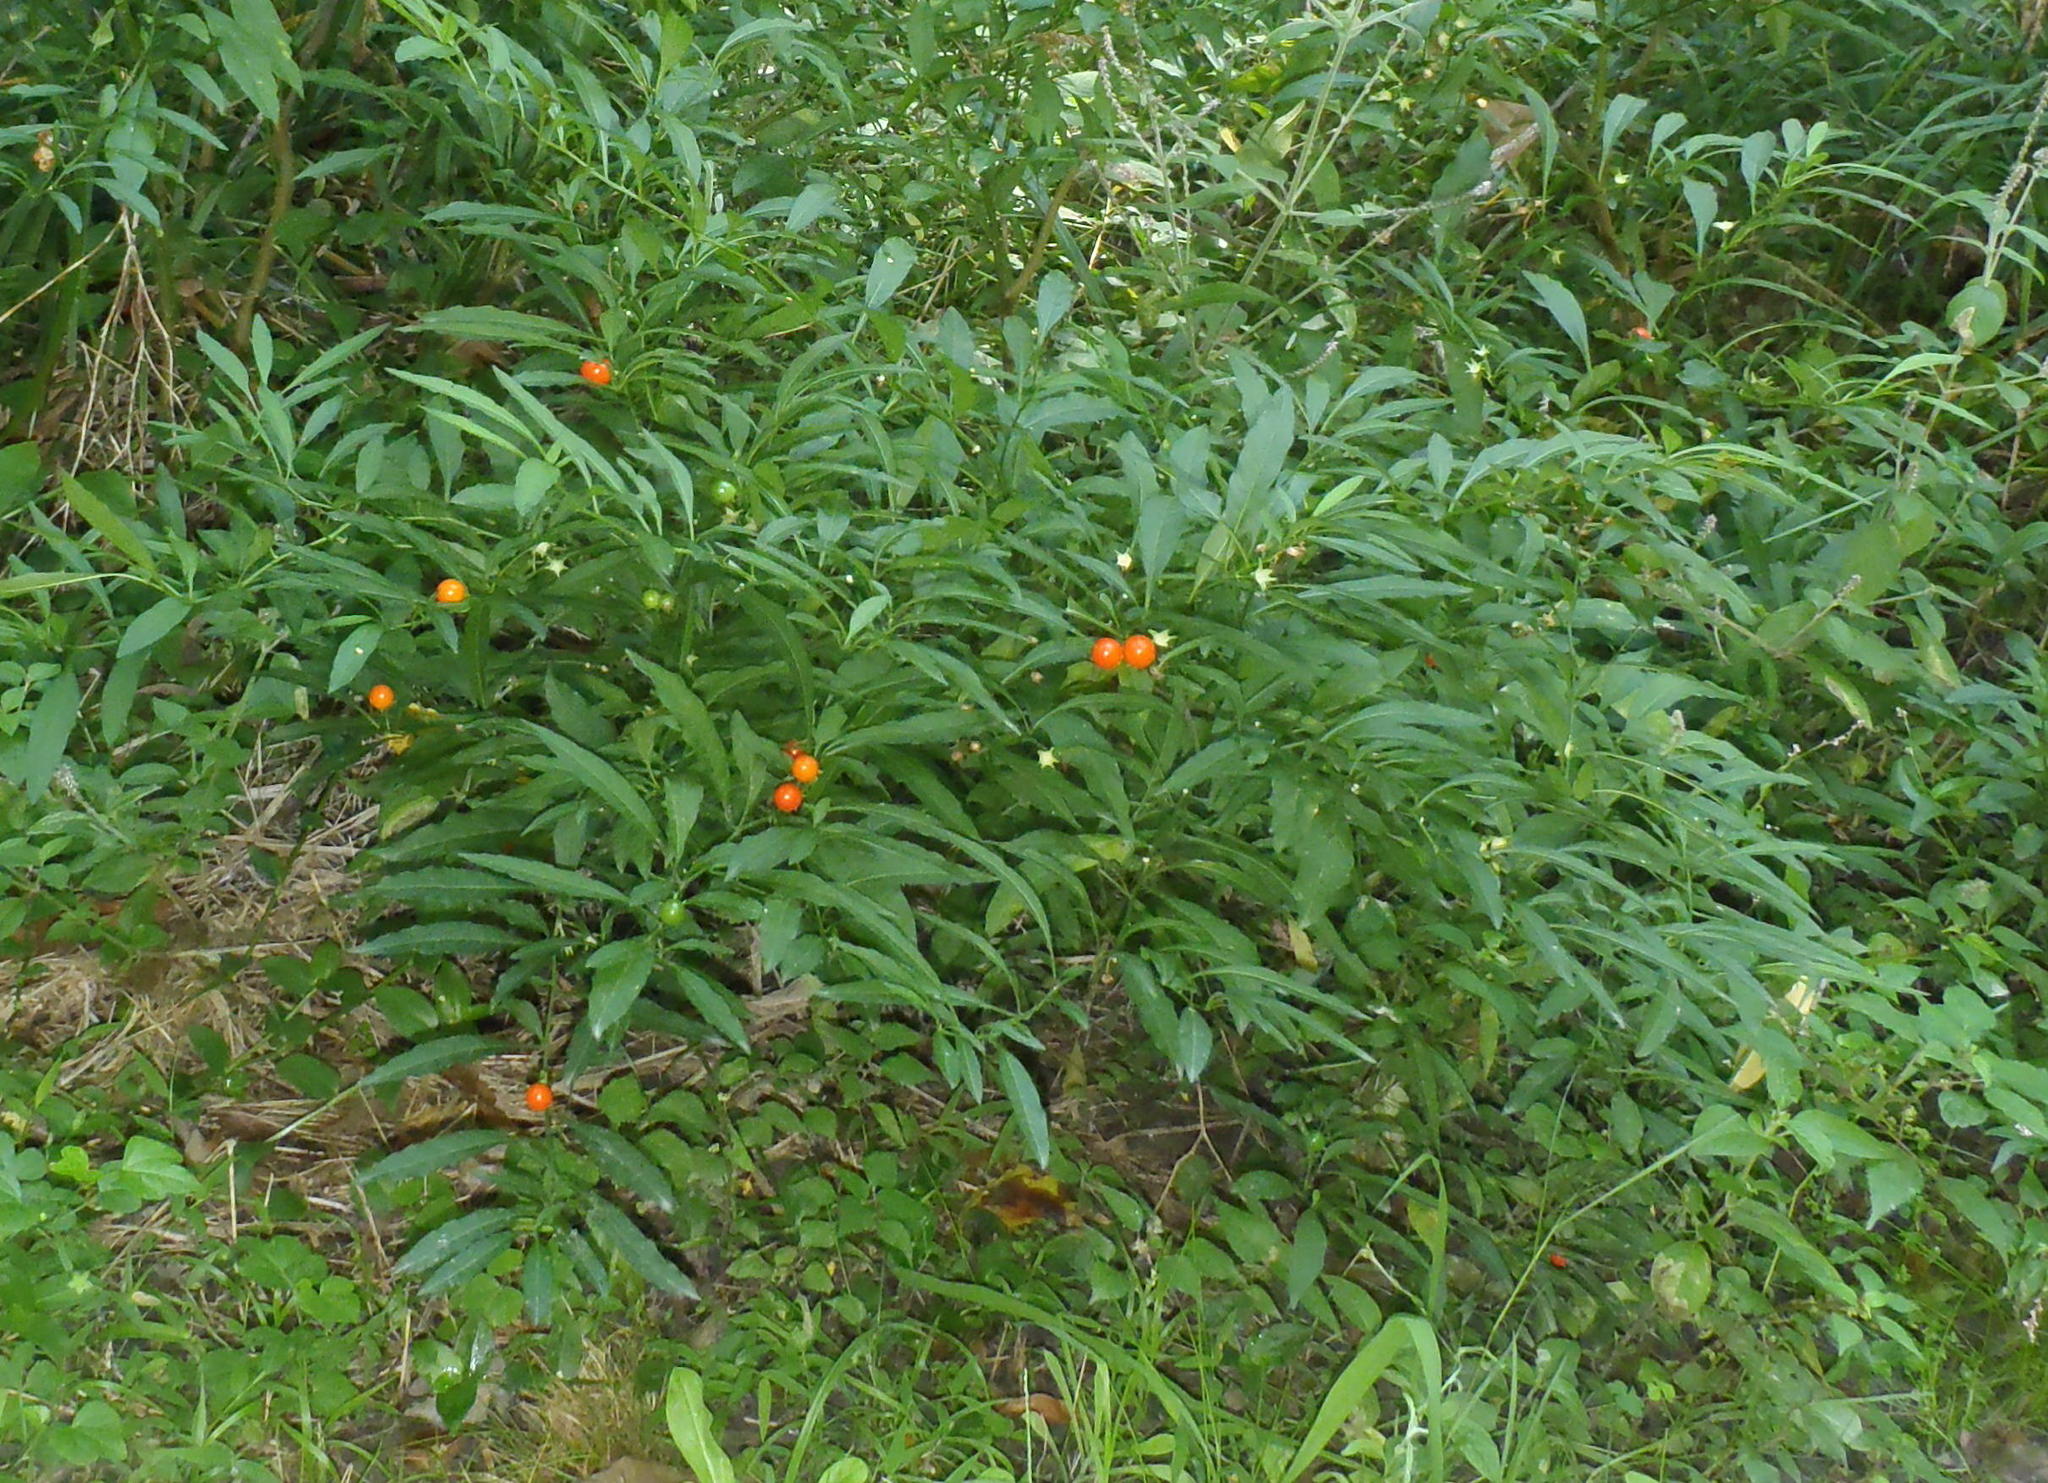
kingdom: Plantae
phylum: Tracheophyta
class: Magnoliopsida
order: Solanales
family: Solanaceae
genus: Solanum
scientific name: Solanum pseudocapsicum
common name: Jerusalem cherry
